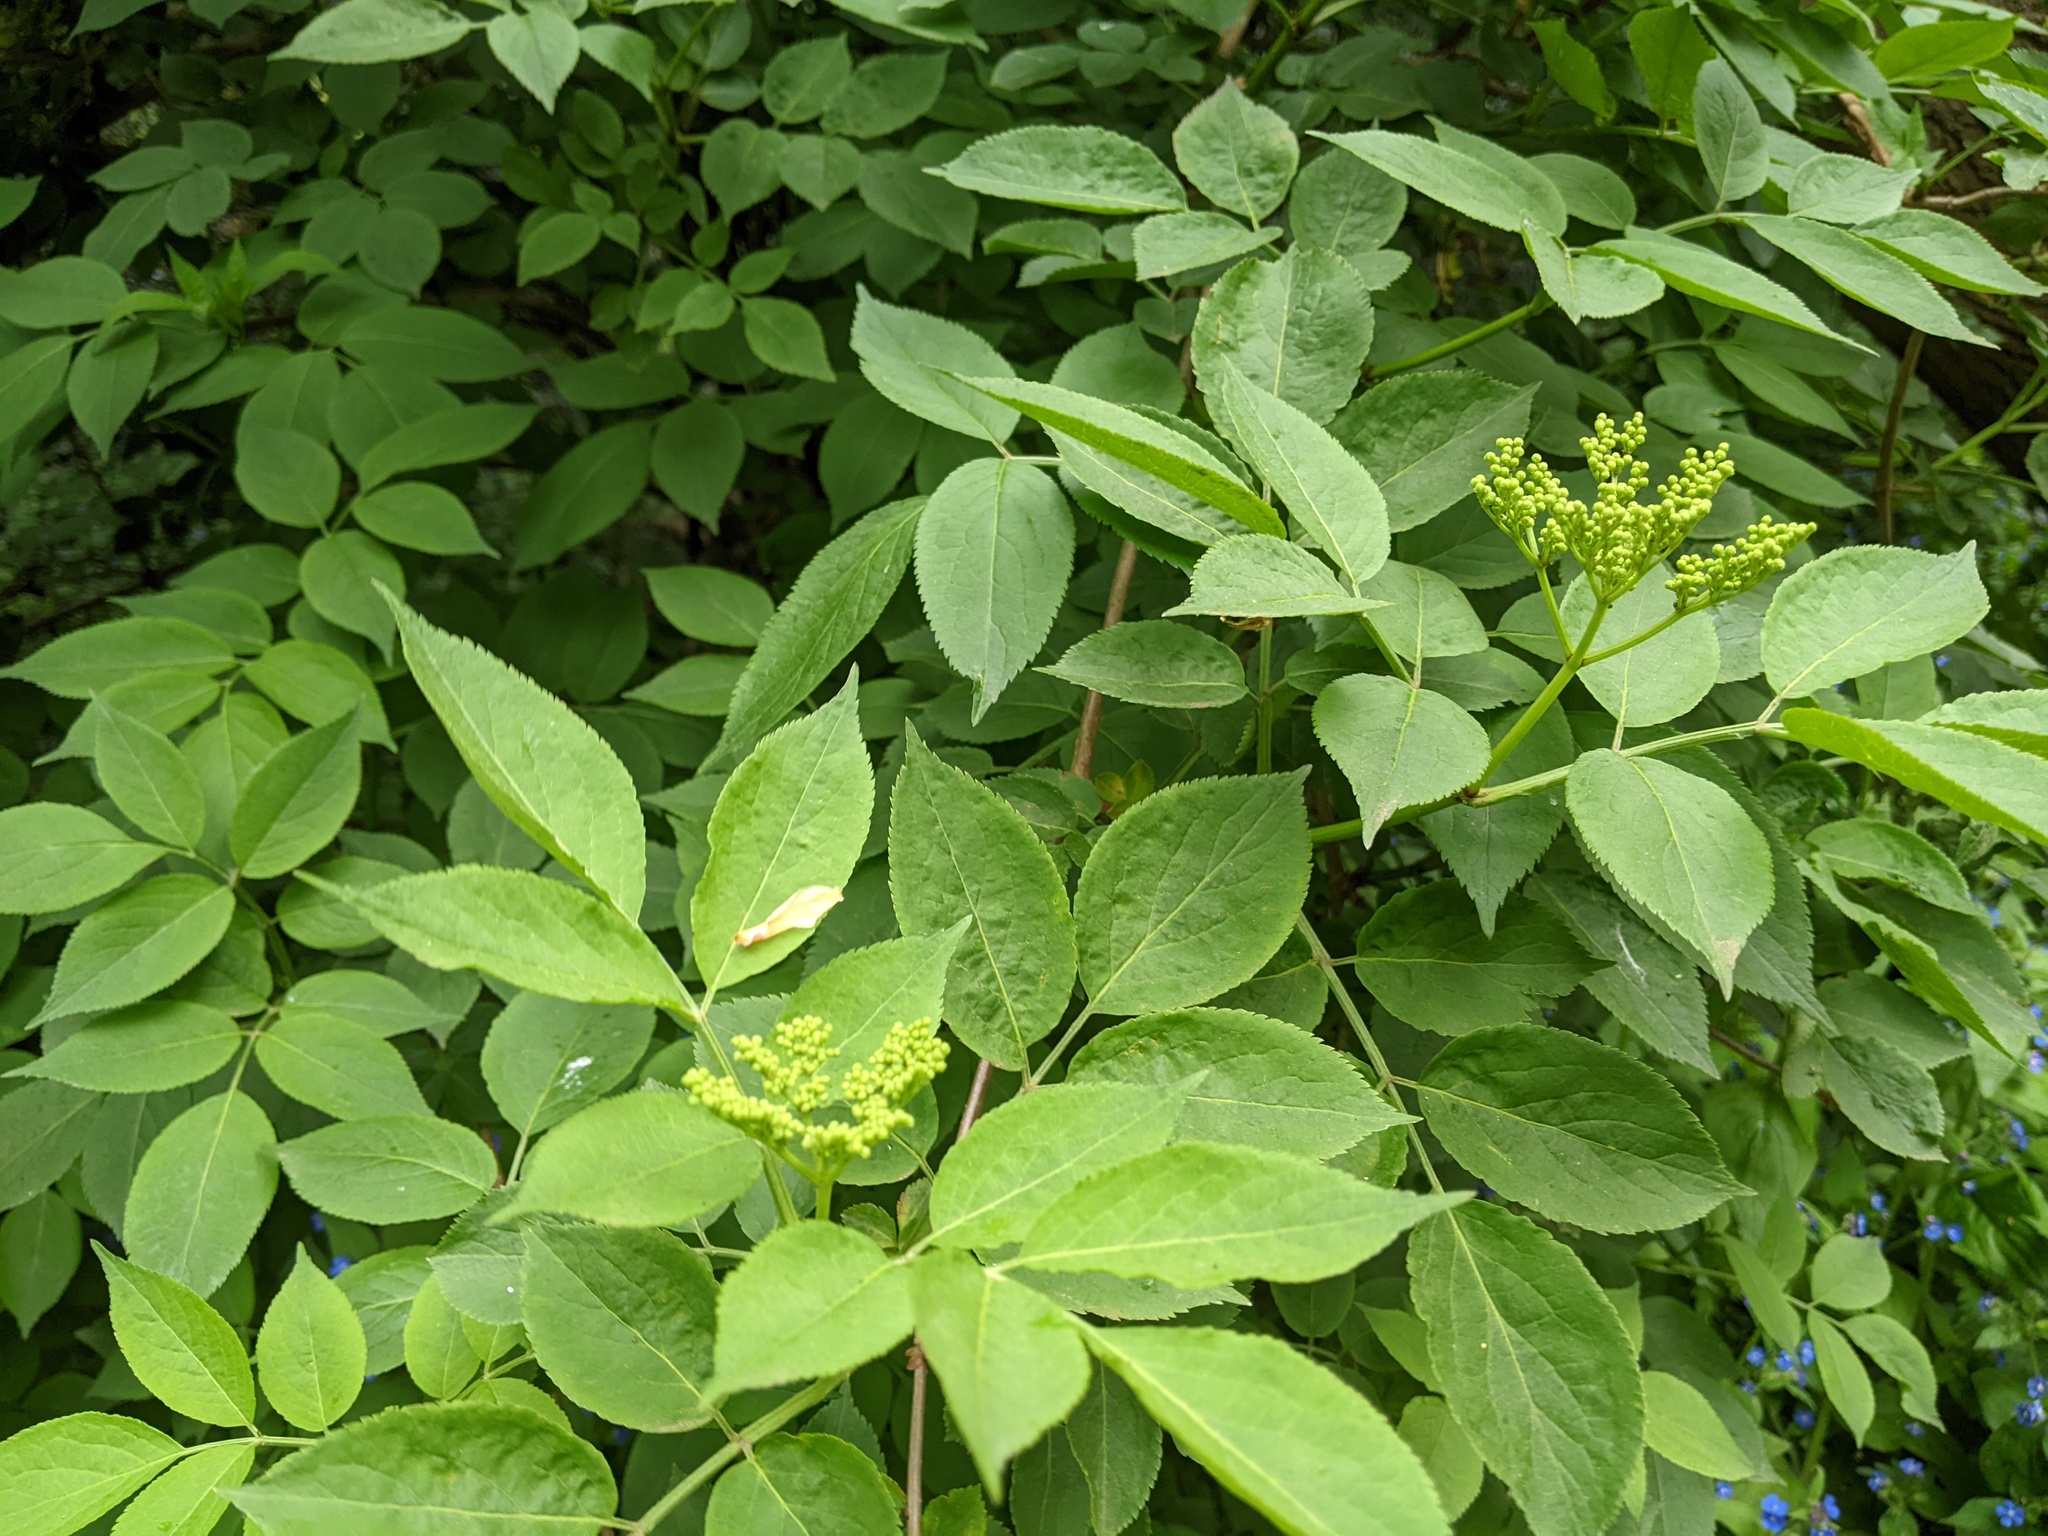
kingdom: Plantae
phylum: Tracheophyta
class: Magnoliopsida
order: Dipsacales
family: Viburnaceae
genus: Sambucus
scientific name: Sambucus nigra
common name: Elder
